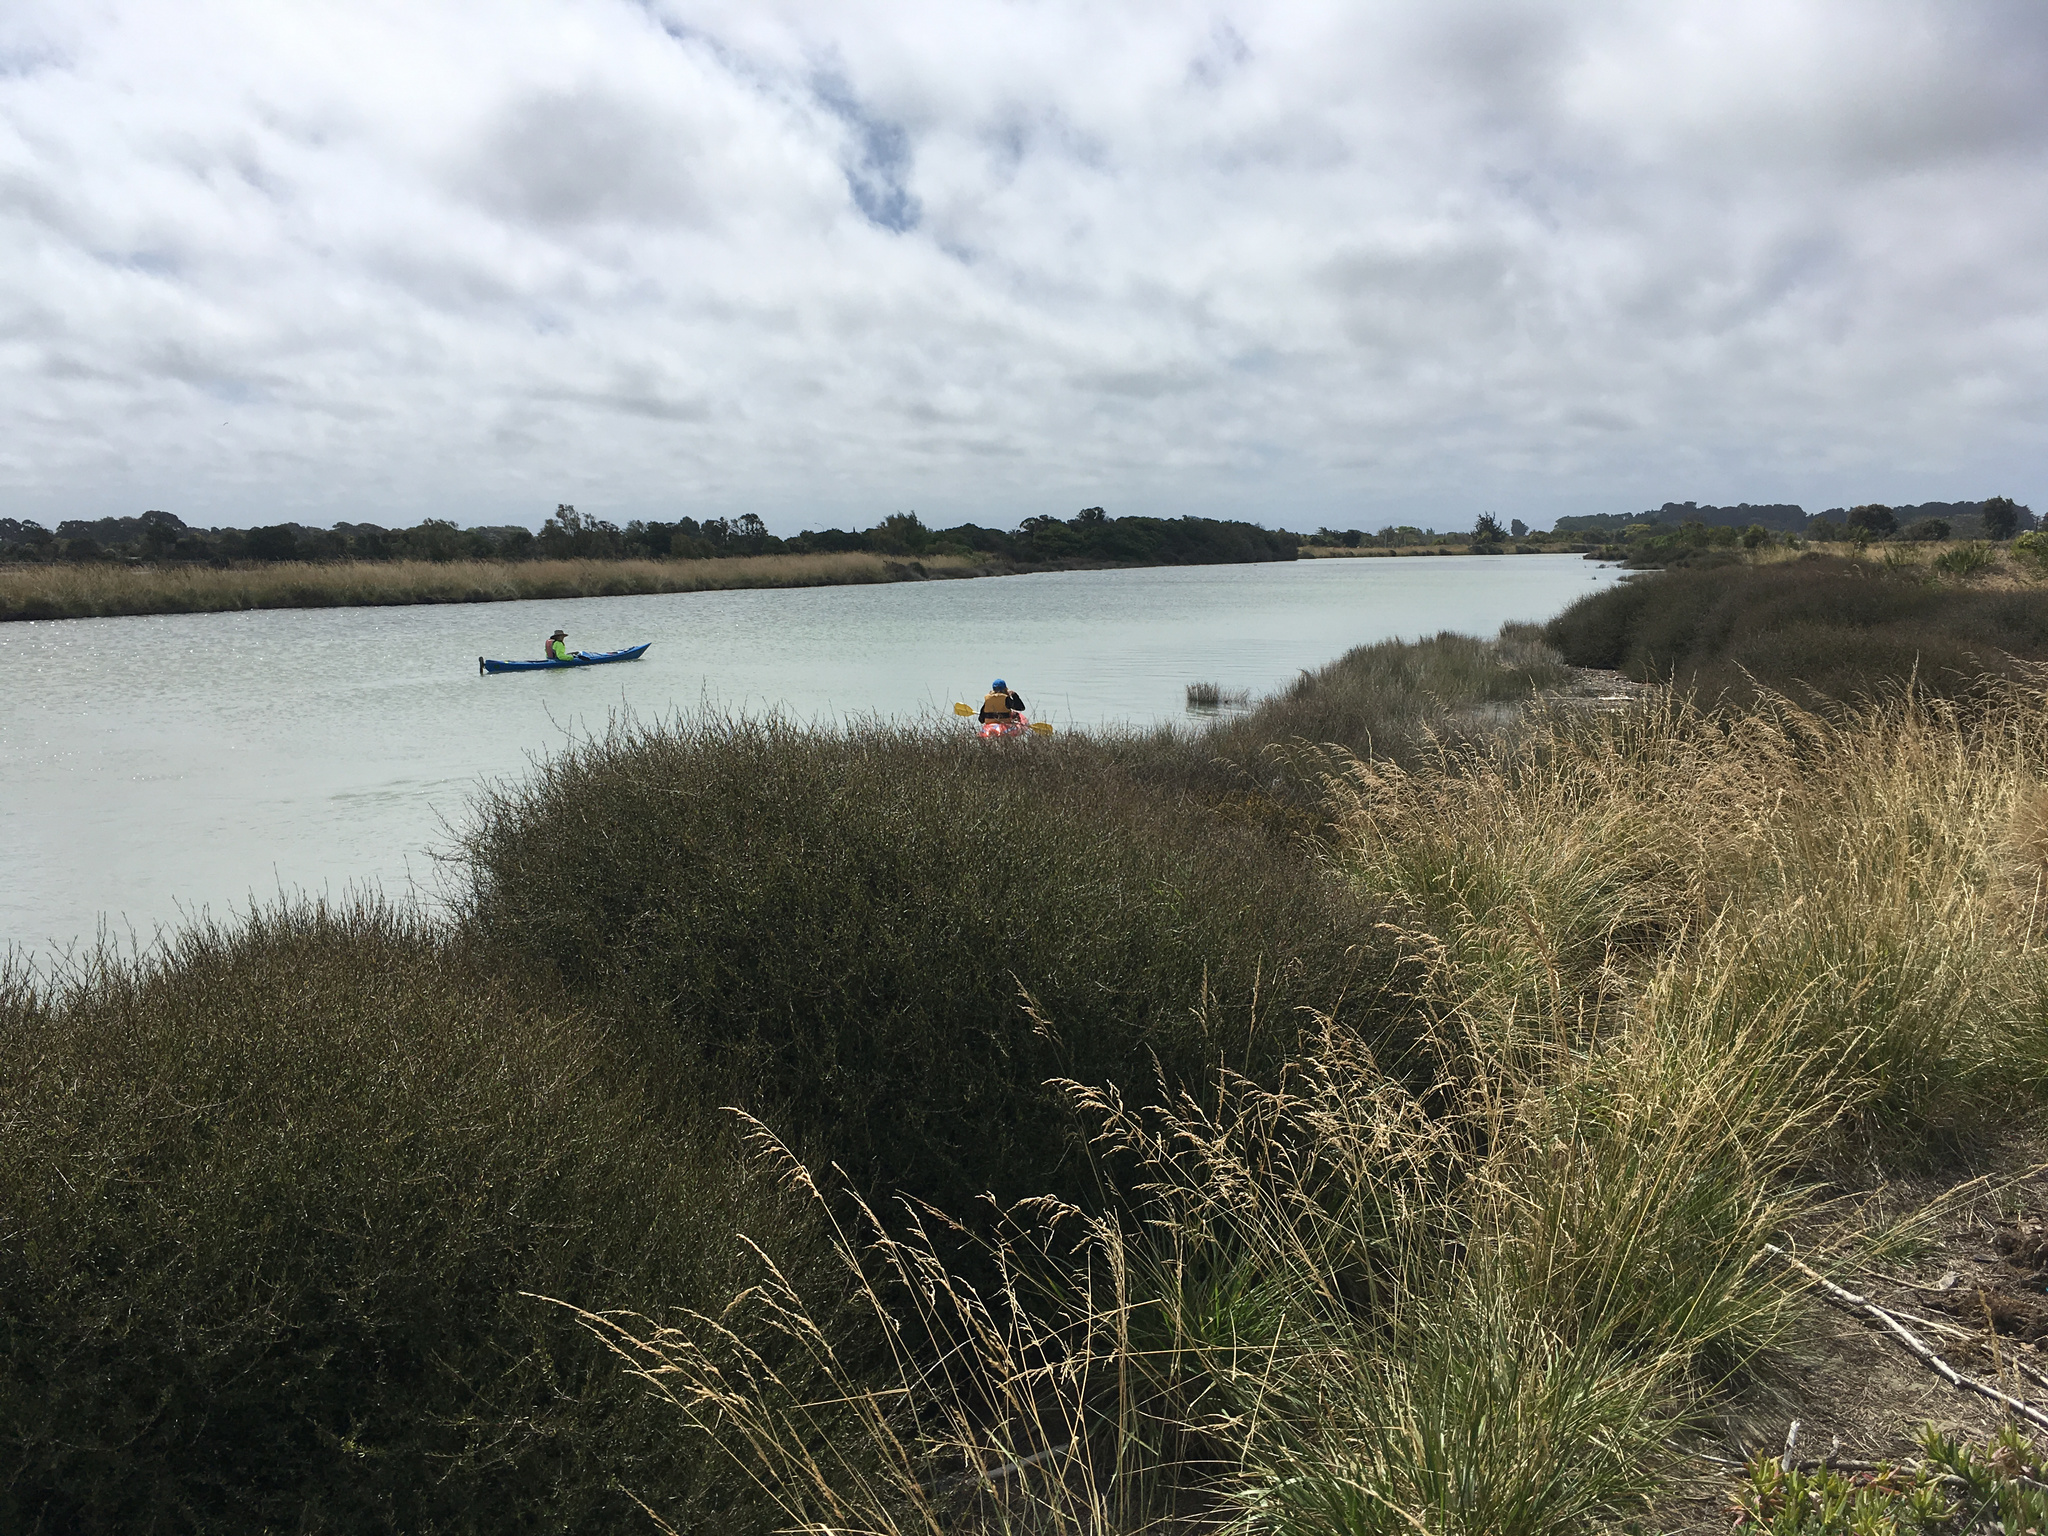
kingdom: Plantae
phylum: Tracheophyta
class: Liliopsida
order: Poales
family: Poaceae
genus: Lolium
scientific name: Lolium arundinaceum
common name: Reed fescue
